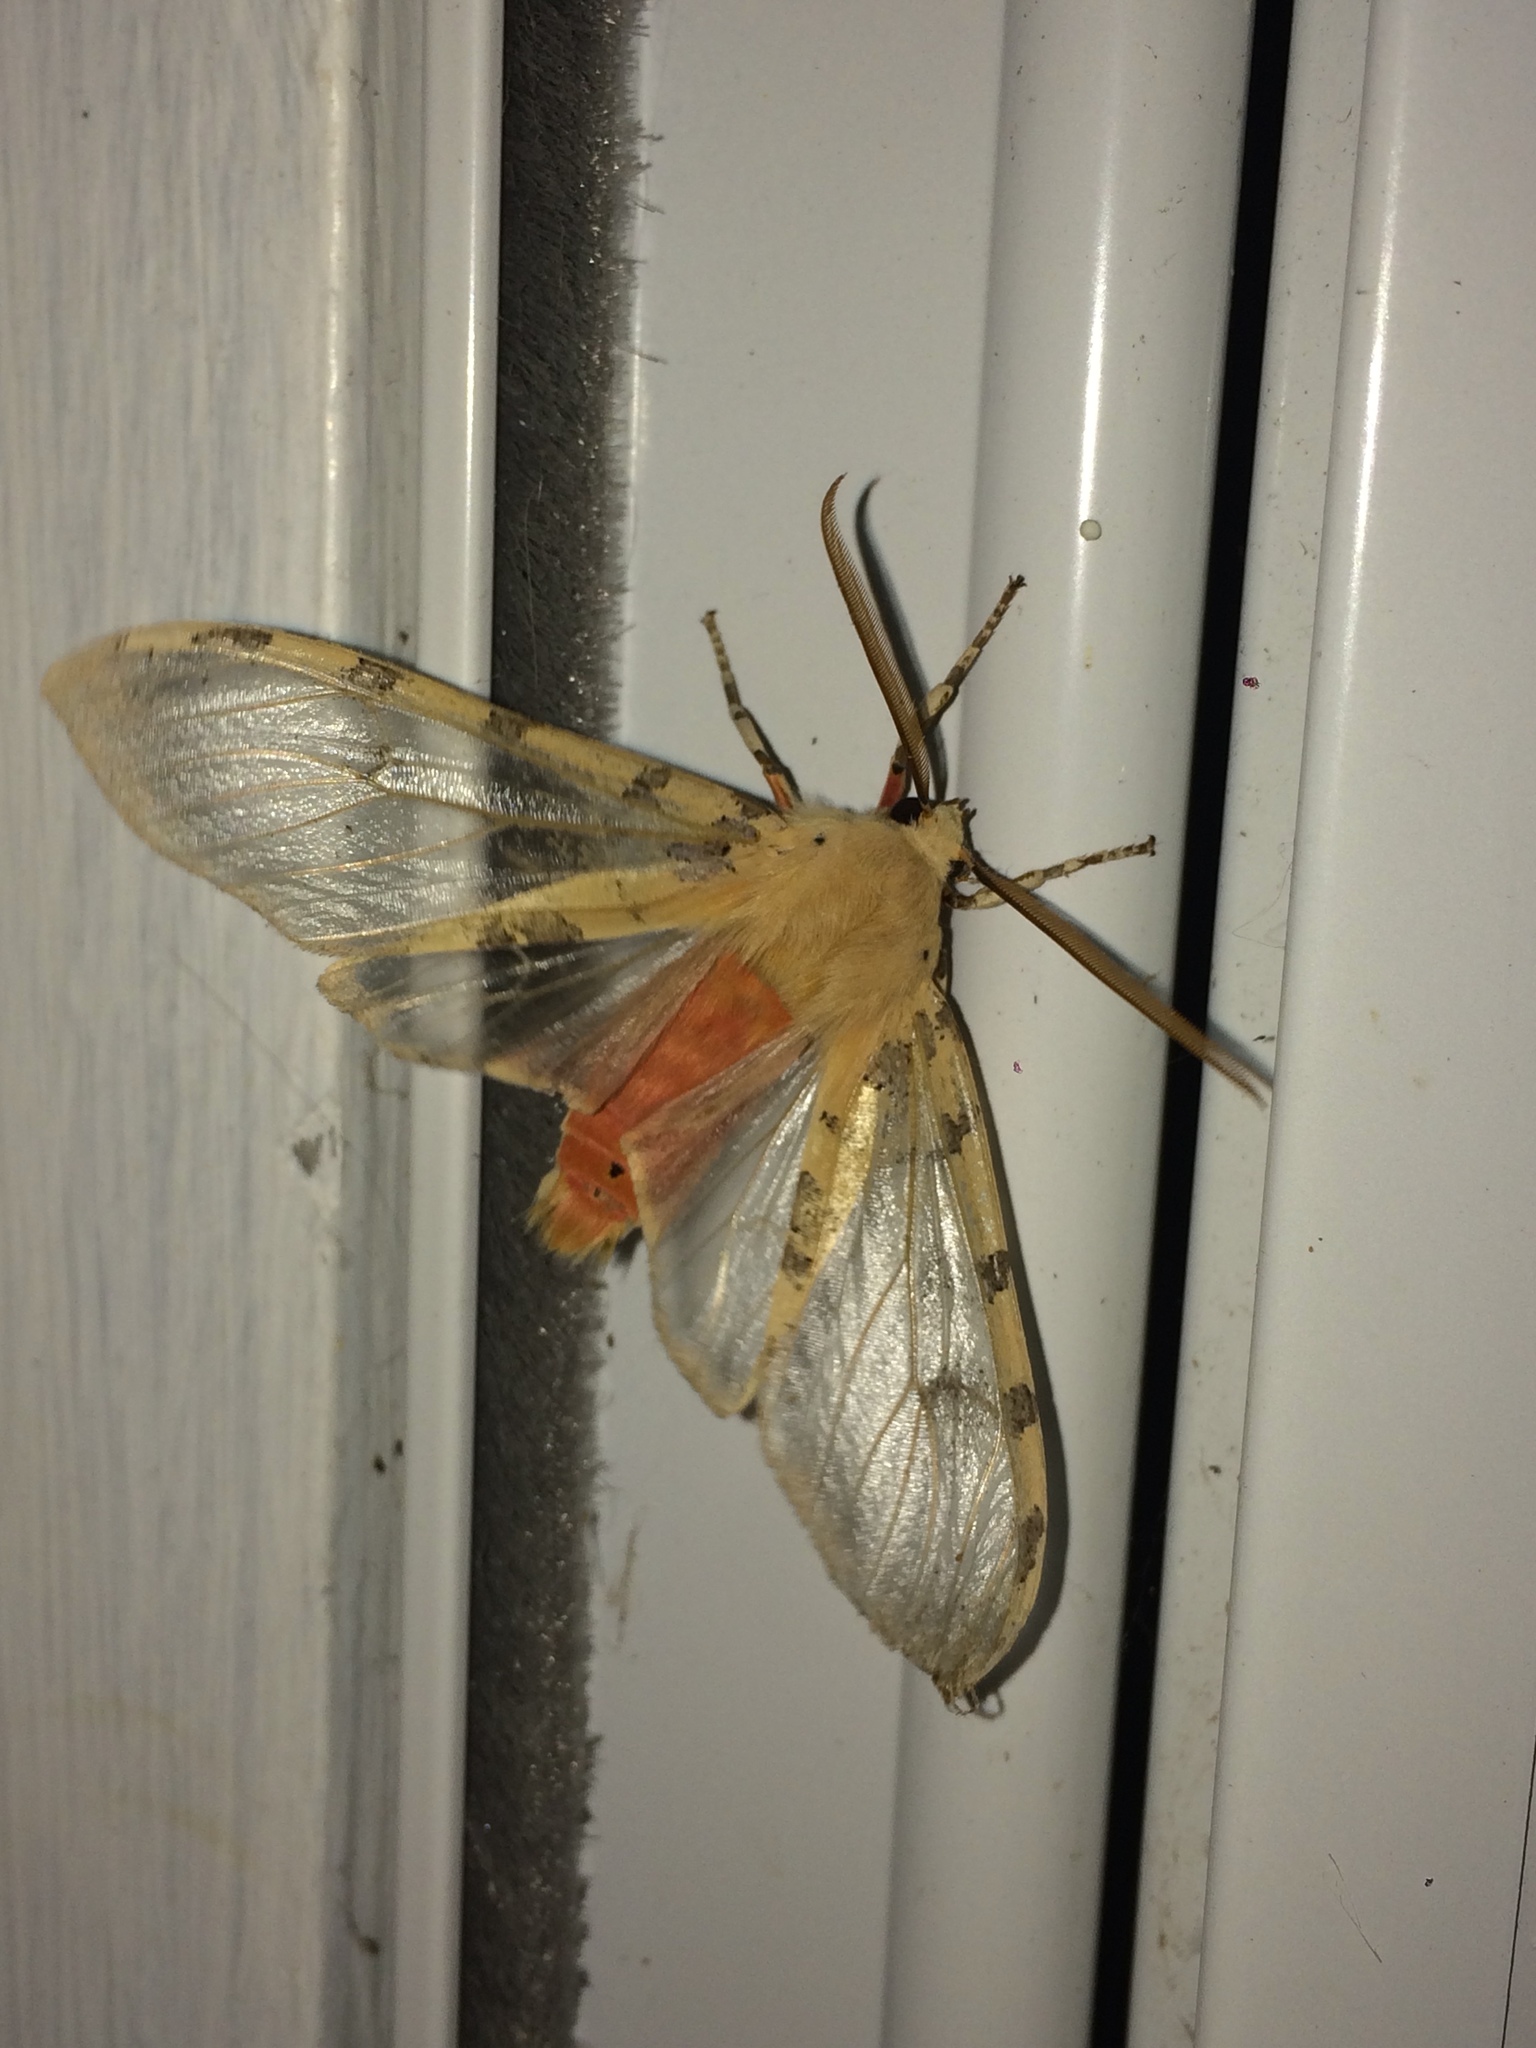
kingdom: Animalia
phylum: Arthropoda
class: Insecta
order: Lepidoptera
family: Erebidae
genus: Hemihyalea
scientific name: Hemihyalea edwardsii
